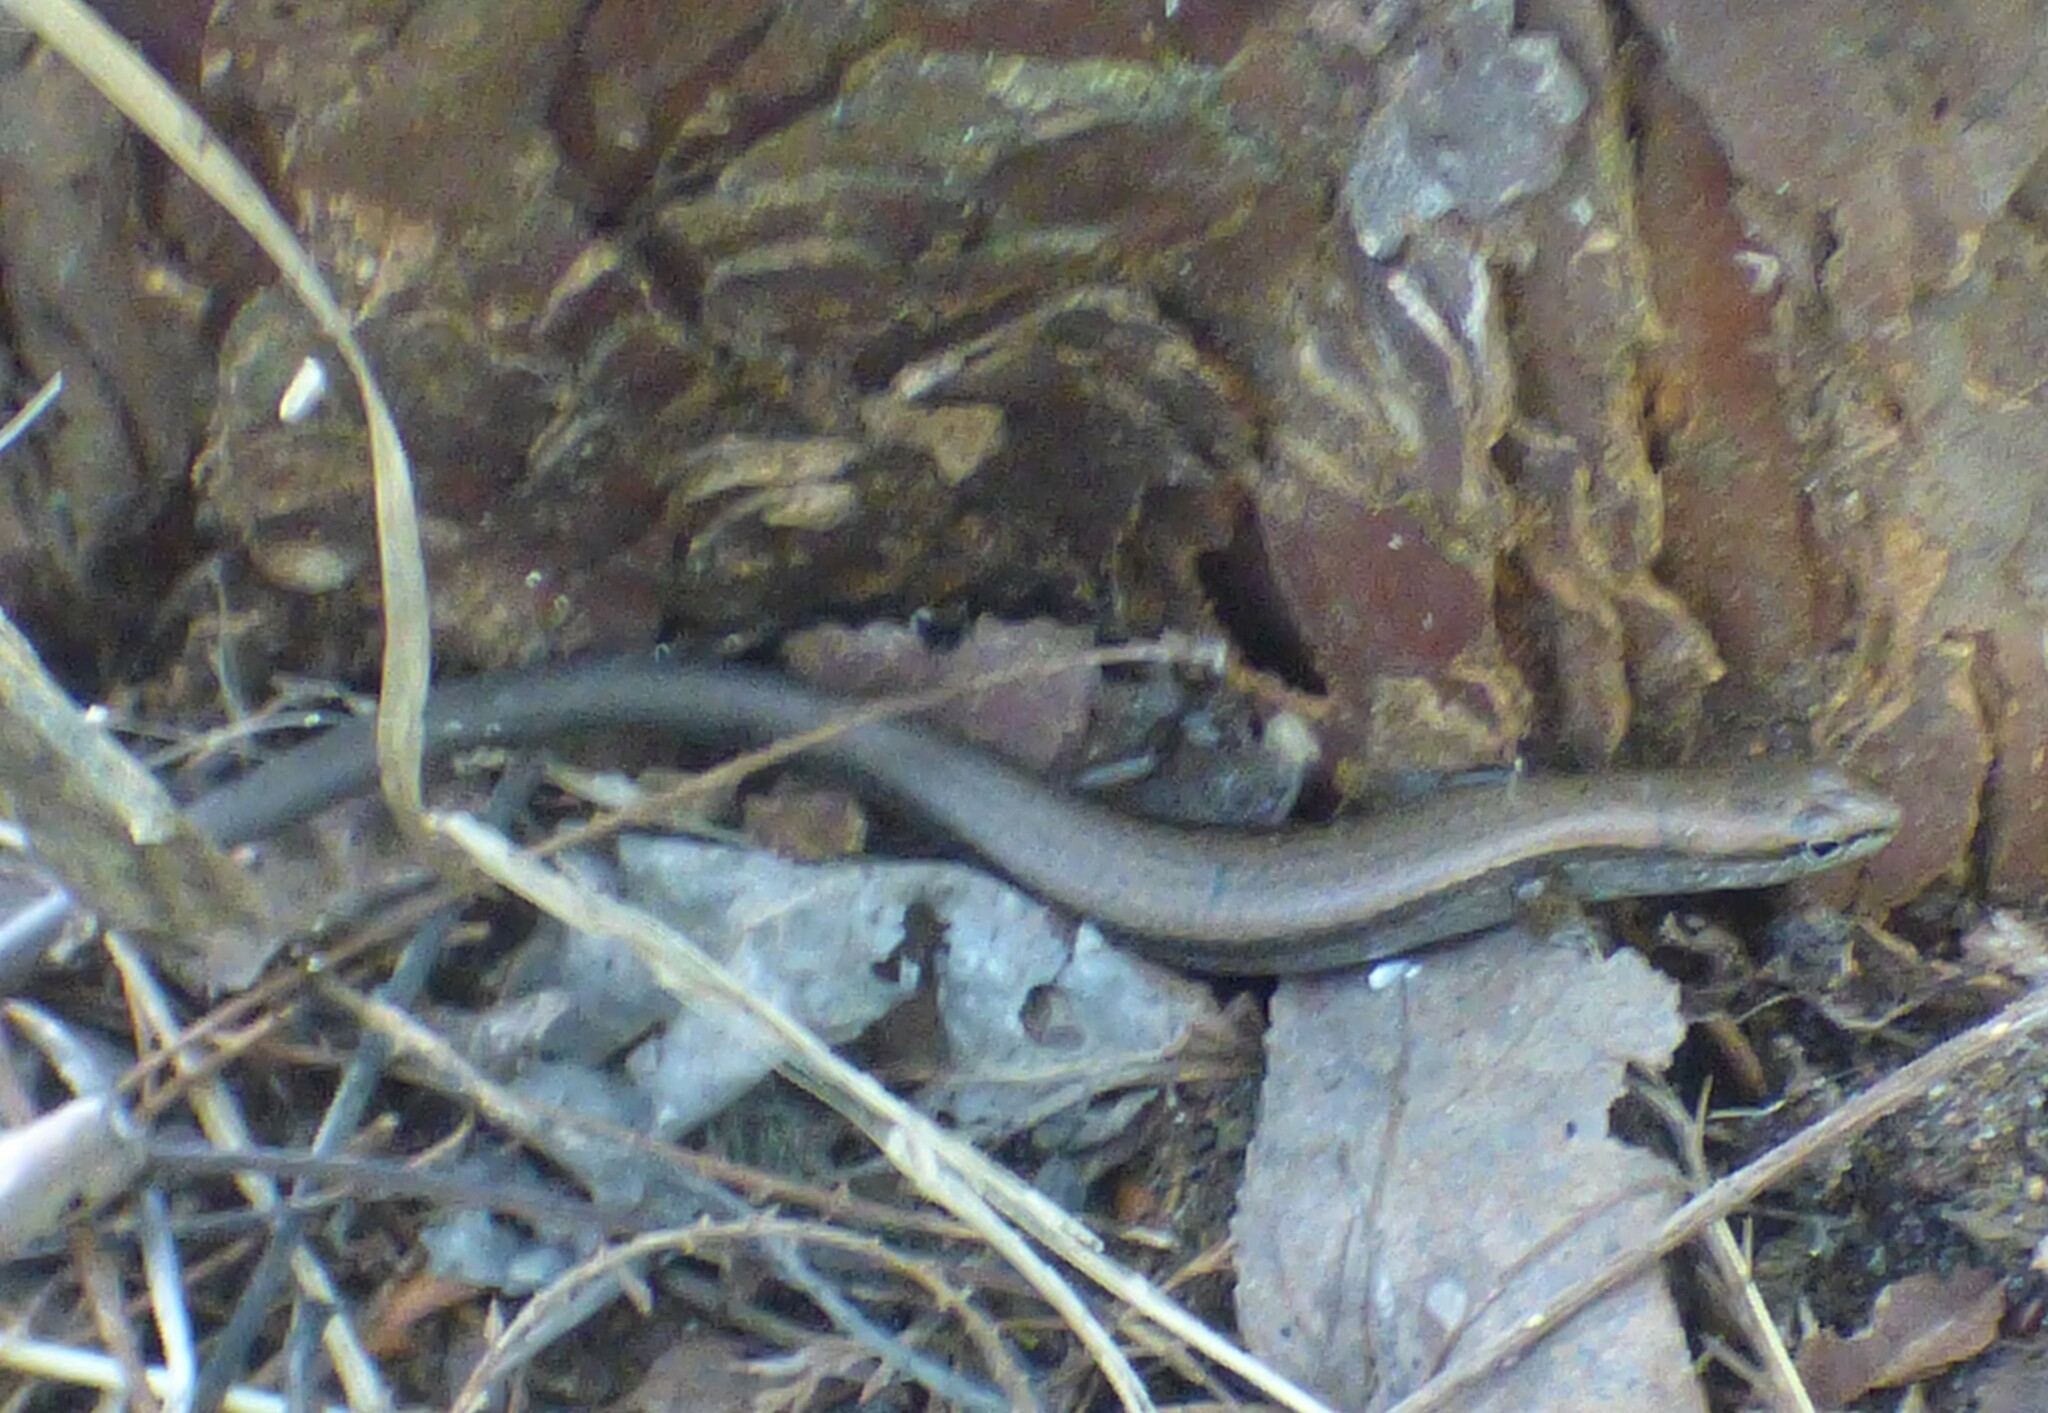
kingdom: Animalia
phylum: Chordata
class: Squamata
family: Scincidae
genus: Scincella
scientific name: Scincella lateralis
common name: Ground skink
